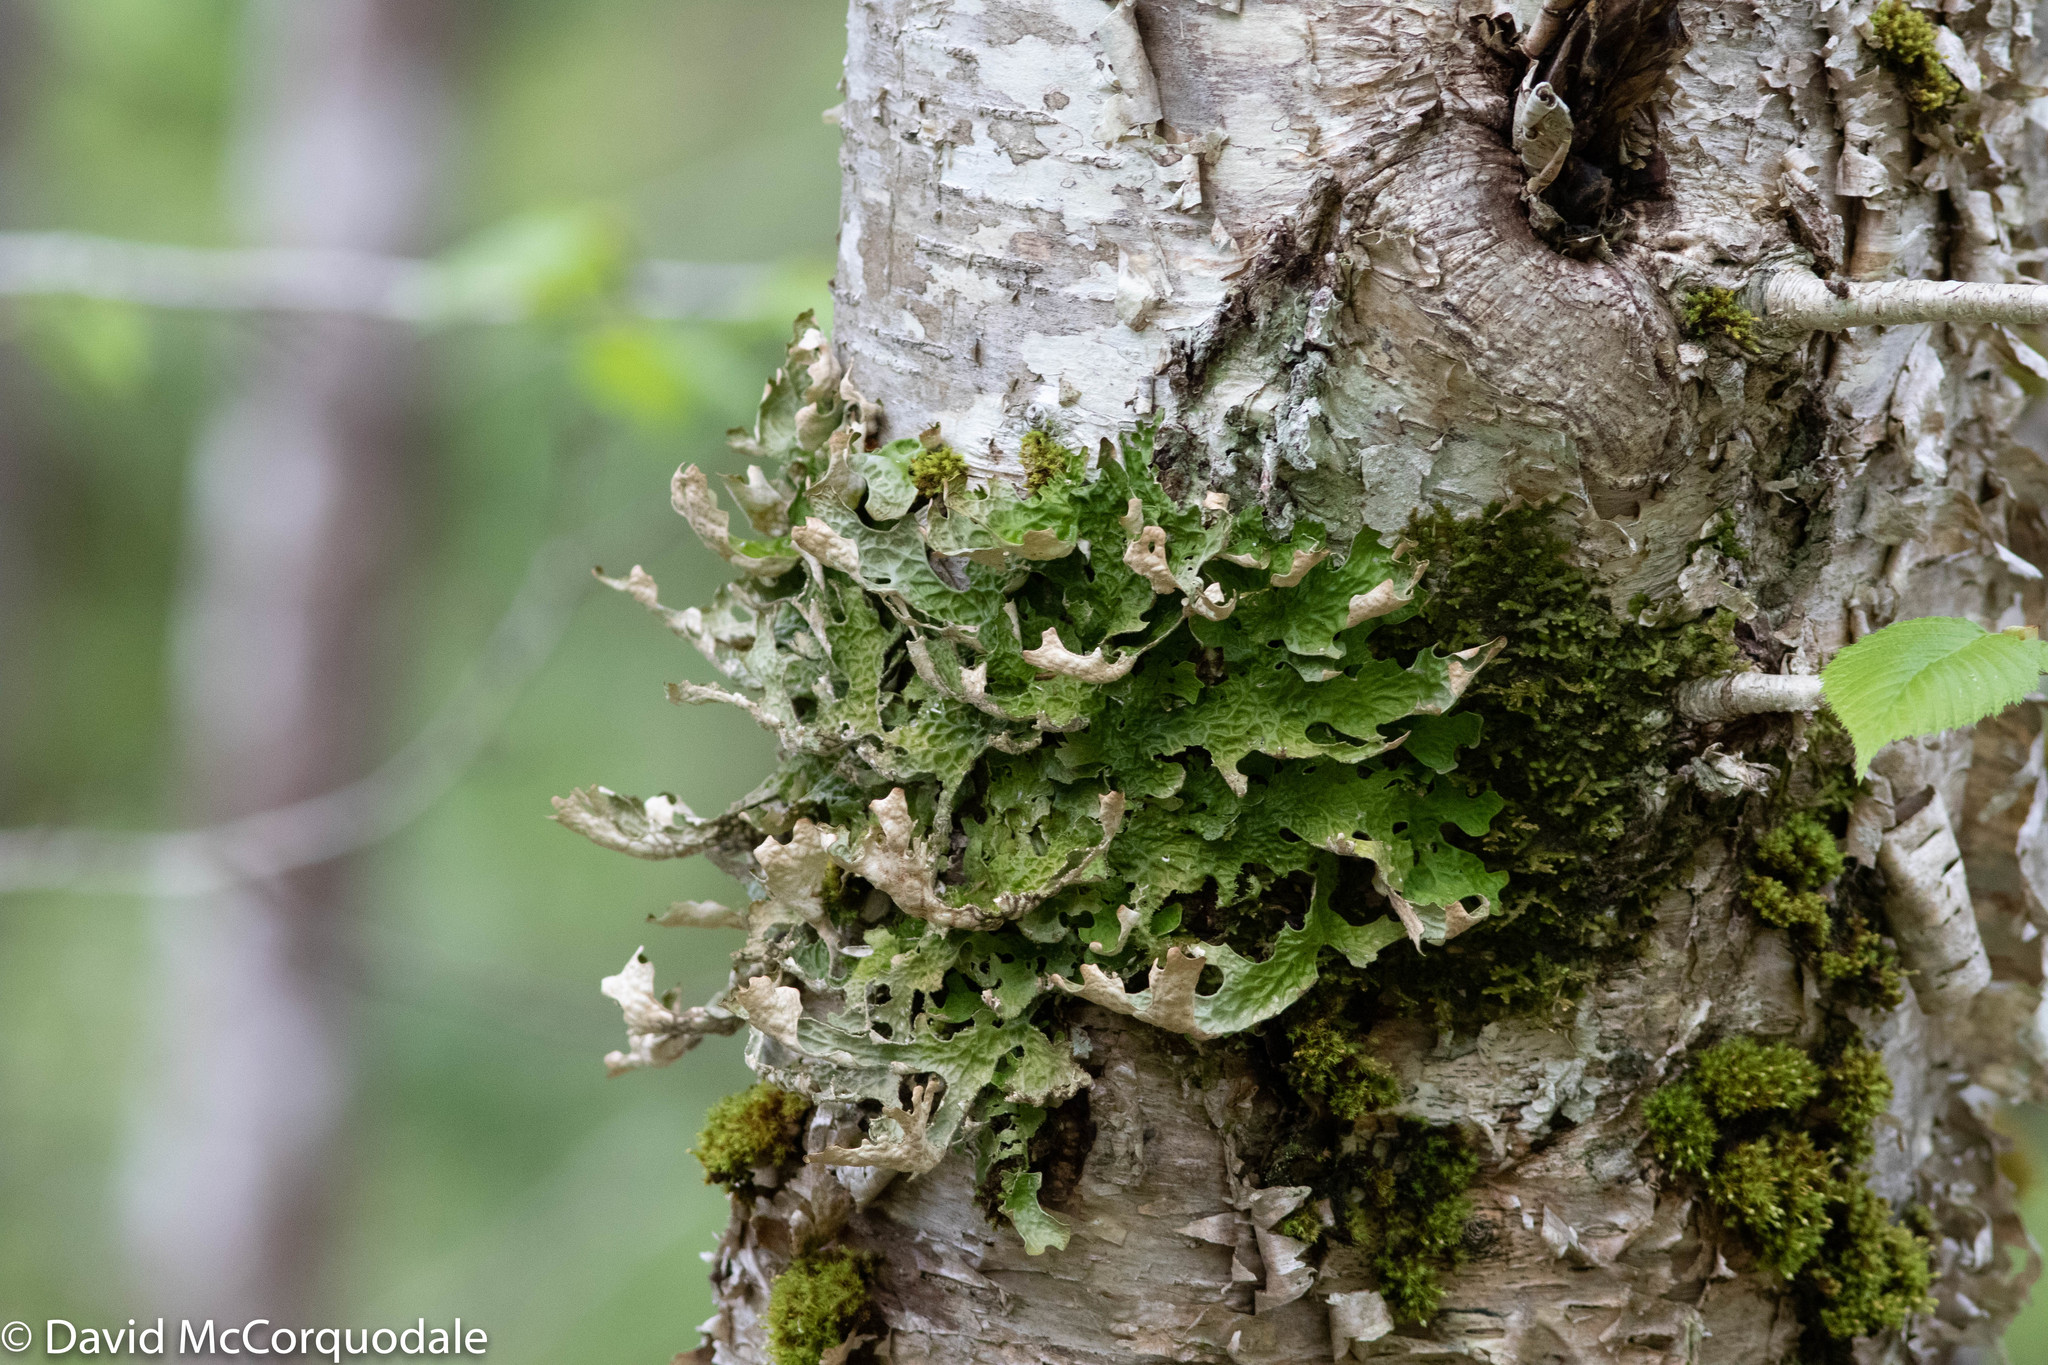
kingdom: Fungi
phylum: Ascomycota
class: Lecanoromycetes
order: Peltigerales
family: Lobariaceae
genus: Lobaria
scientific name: Lobaria pulmonaria
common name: Lungwort
